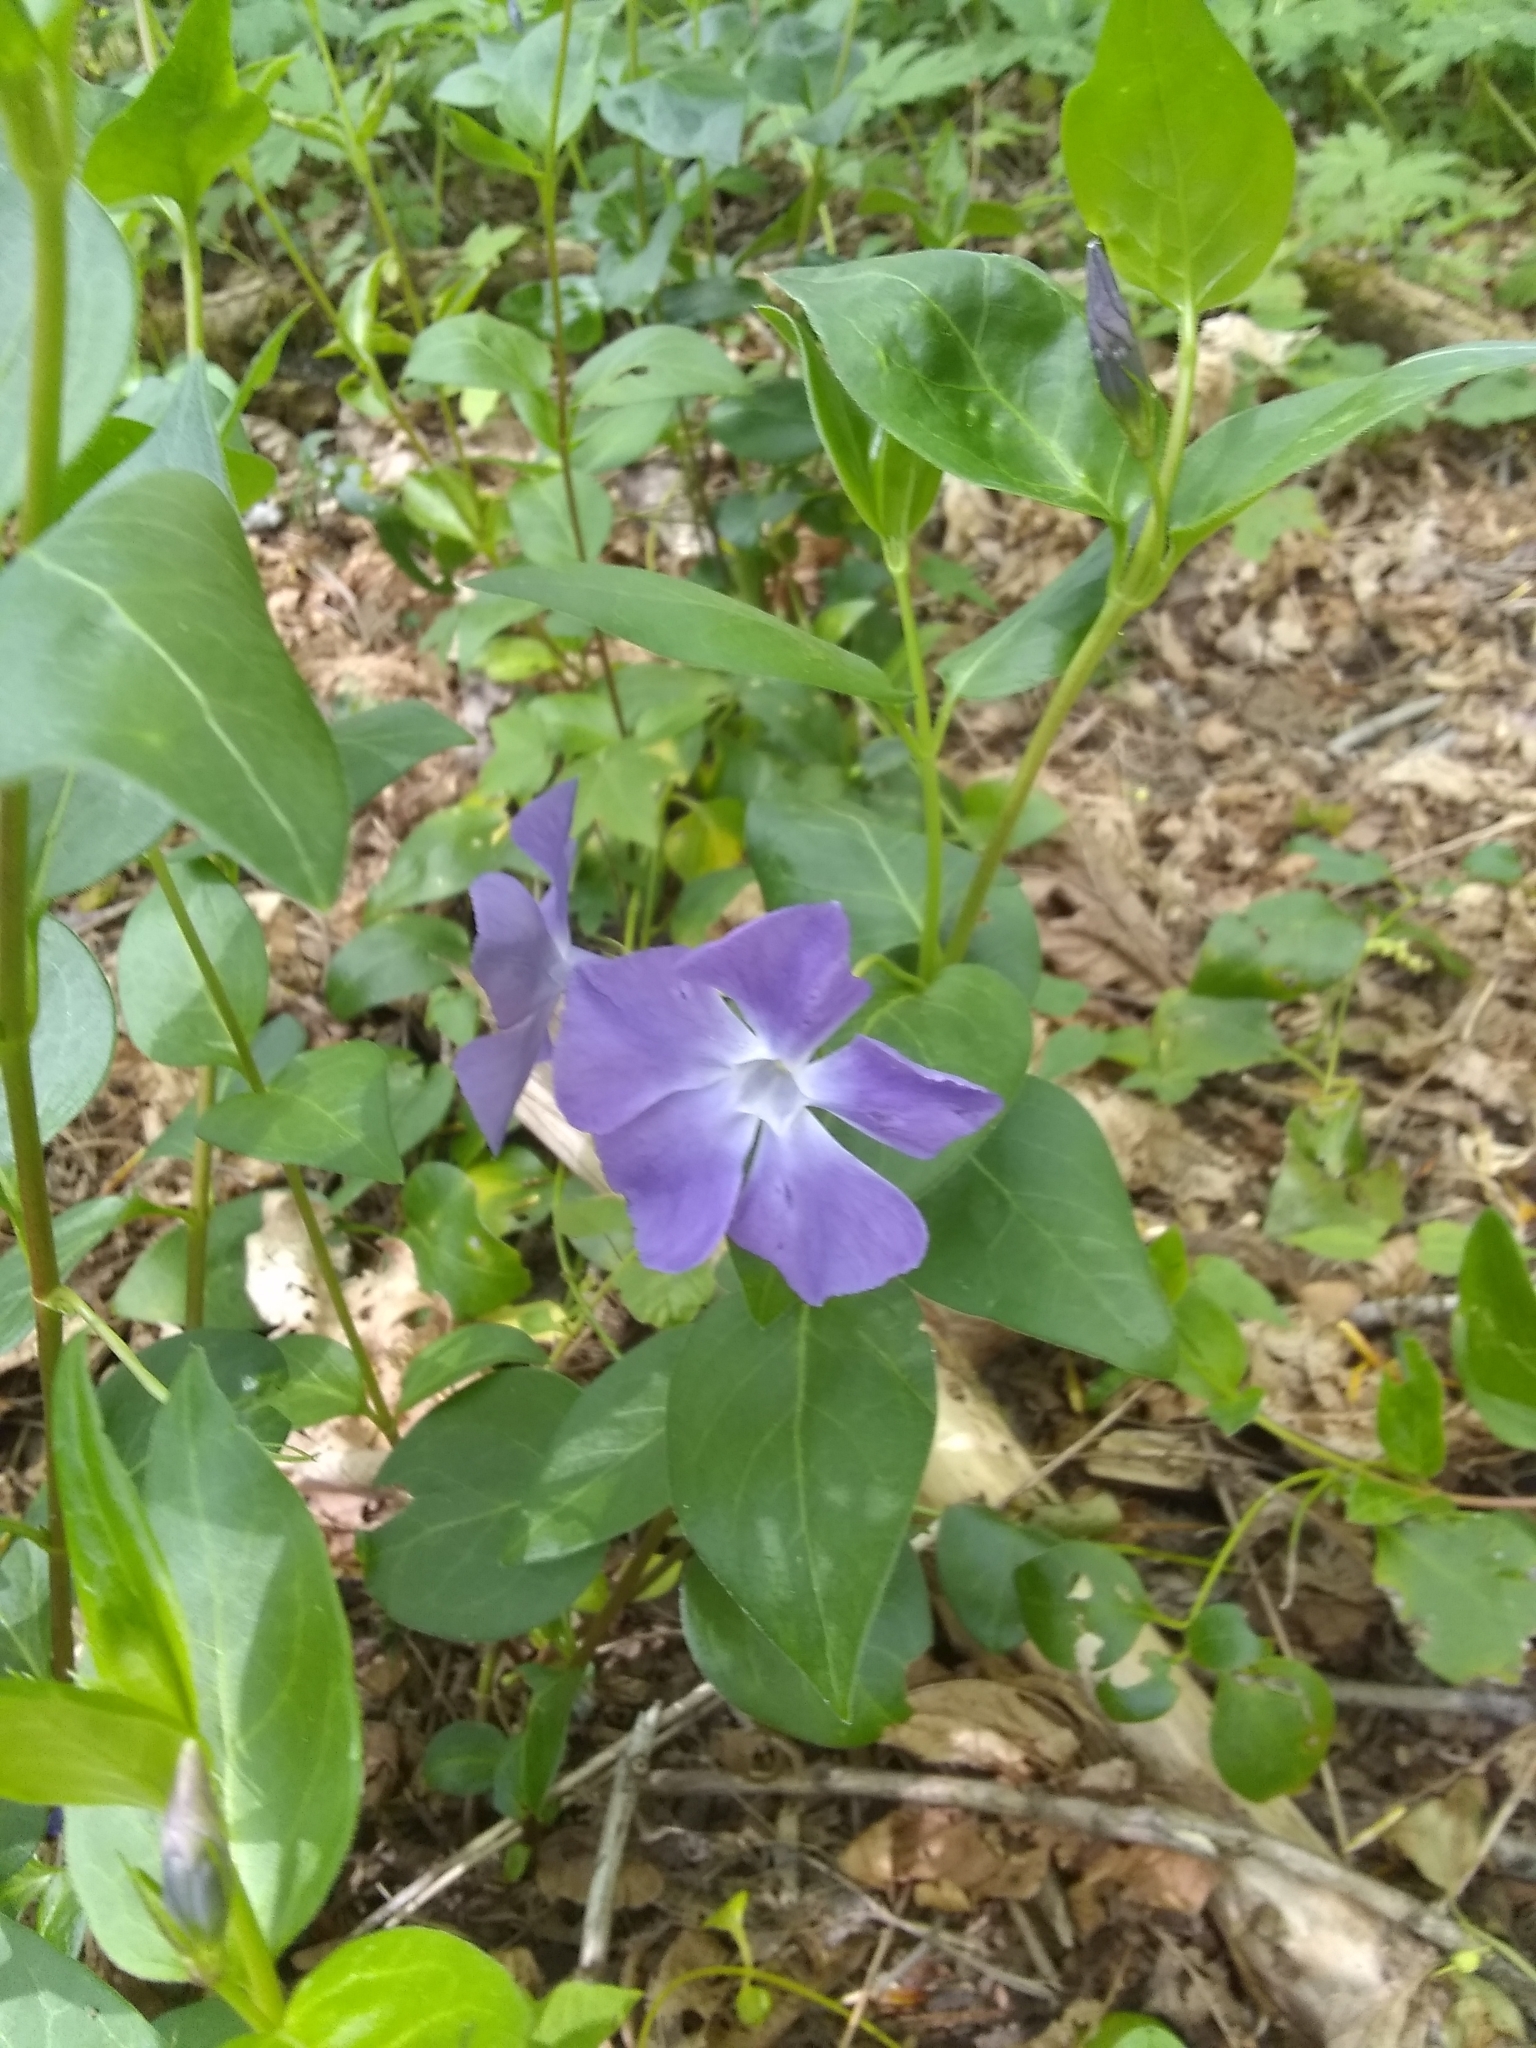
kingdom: Plantae
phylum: Tracheophyta
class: Magnoliopsida
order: Gentianales
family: Apocynaceae
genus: Vinca
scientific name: Vinca major
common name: Greater periwinkle
